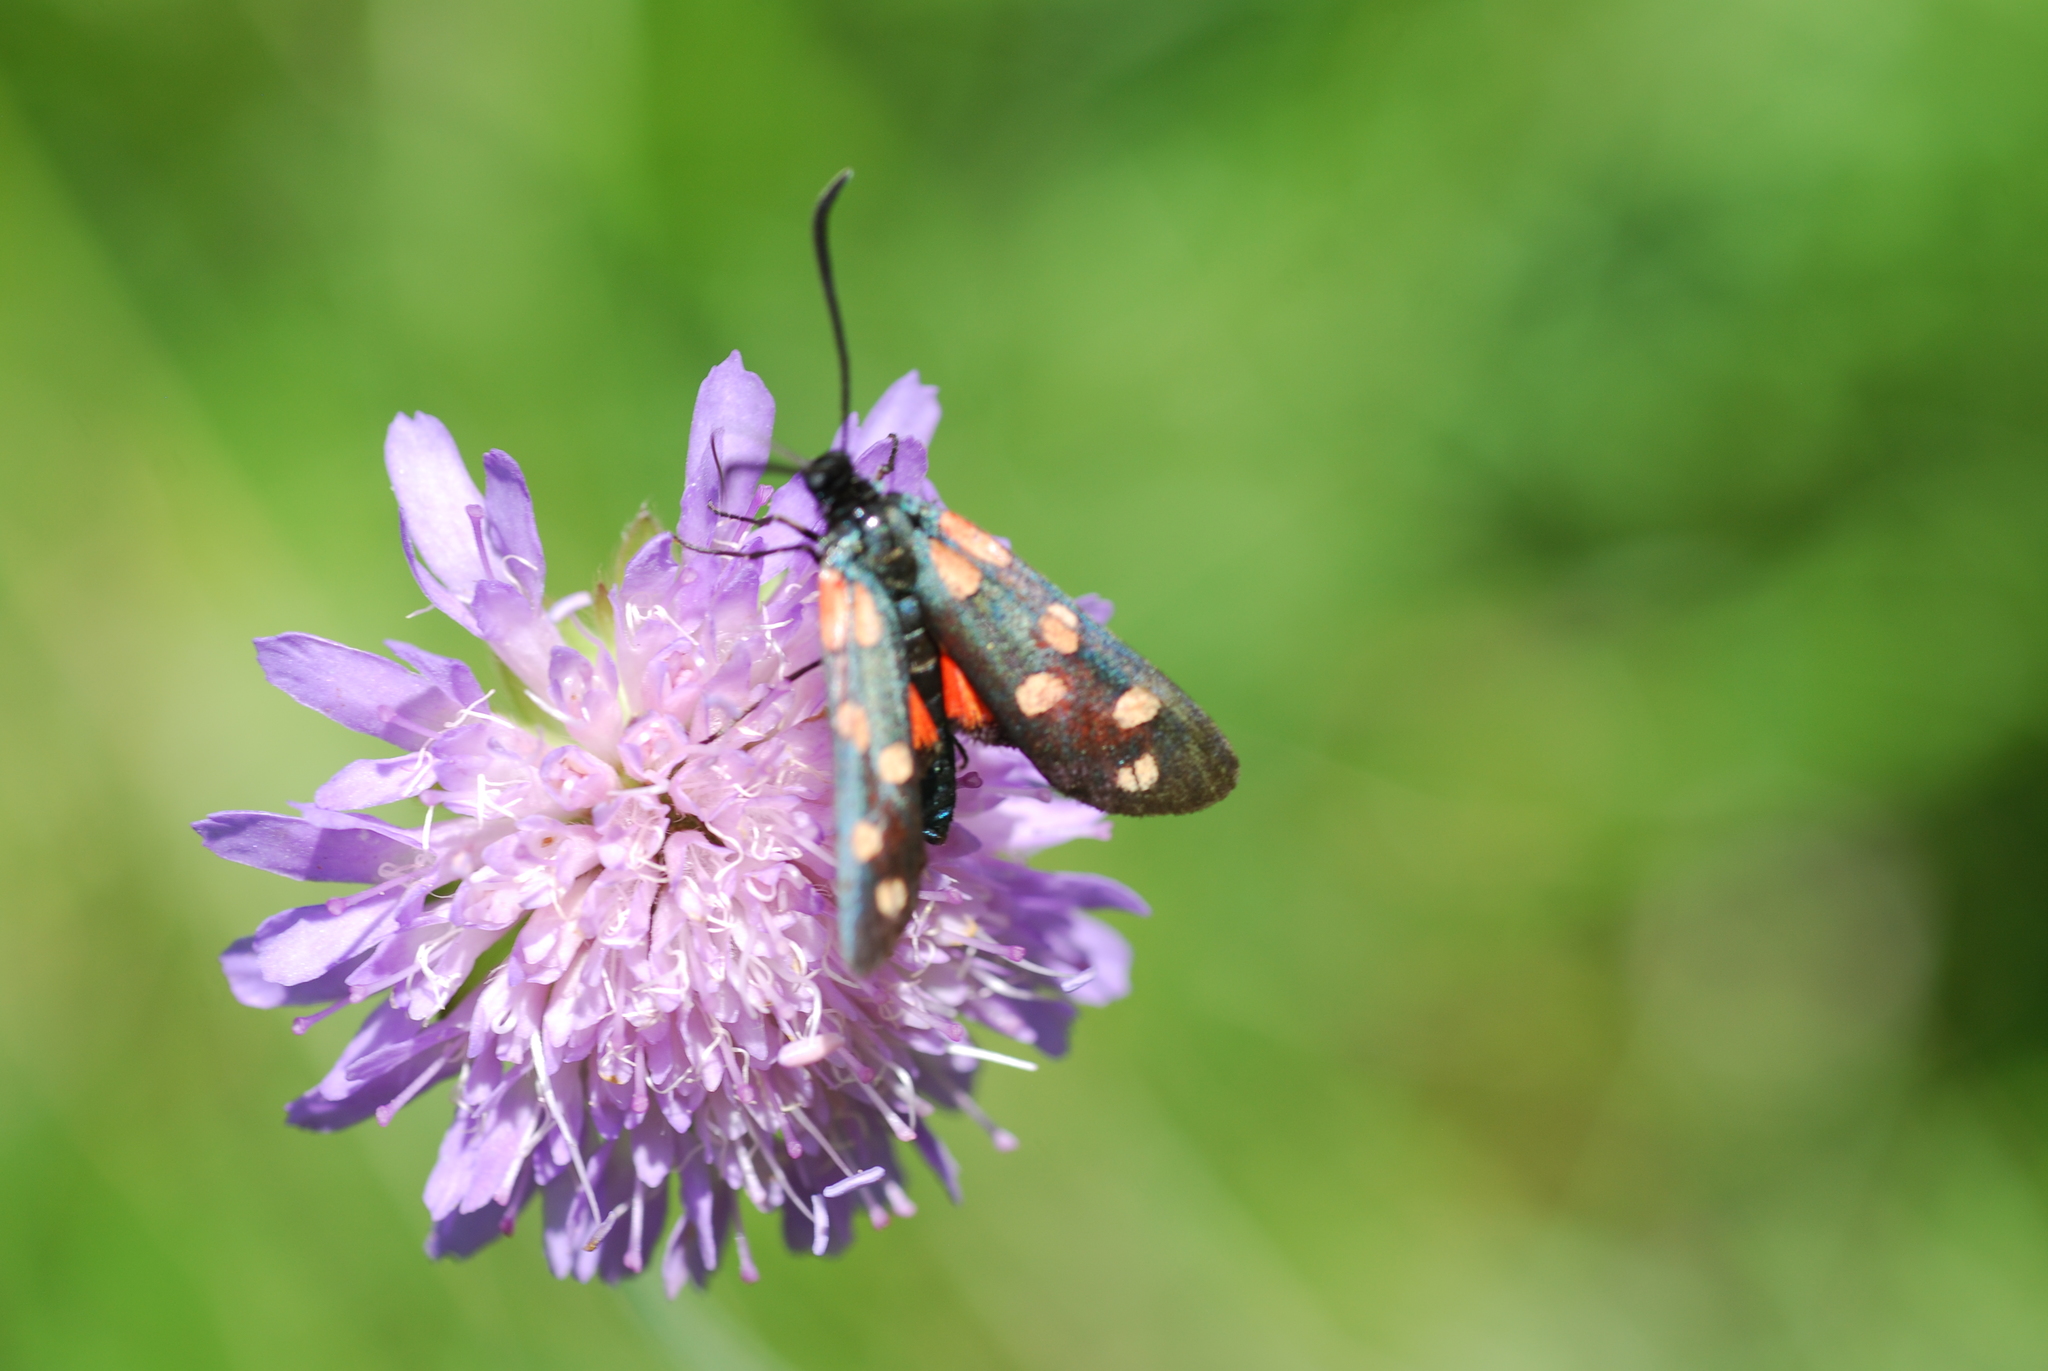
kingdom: Animalia
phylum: Arthropoda
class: Insecta
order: Lepidoptera
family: Zygaenidae
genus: Zygaena
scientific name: Zygaena transalpina
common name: Southern six spot burnet
